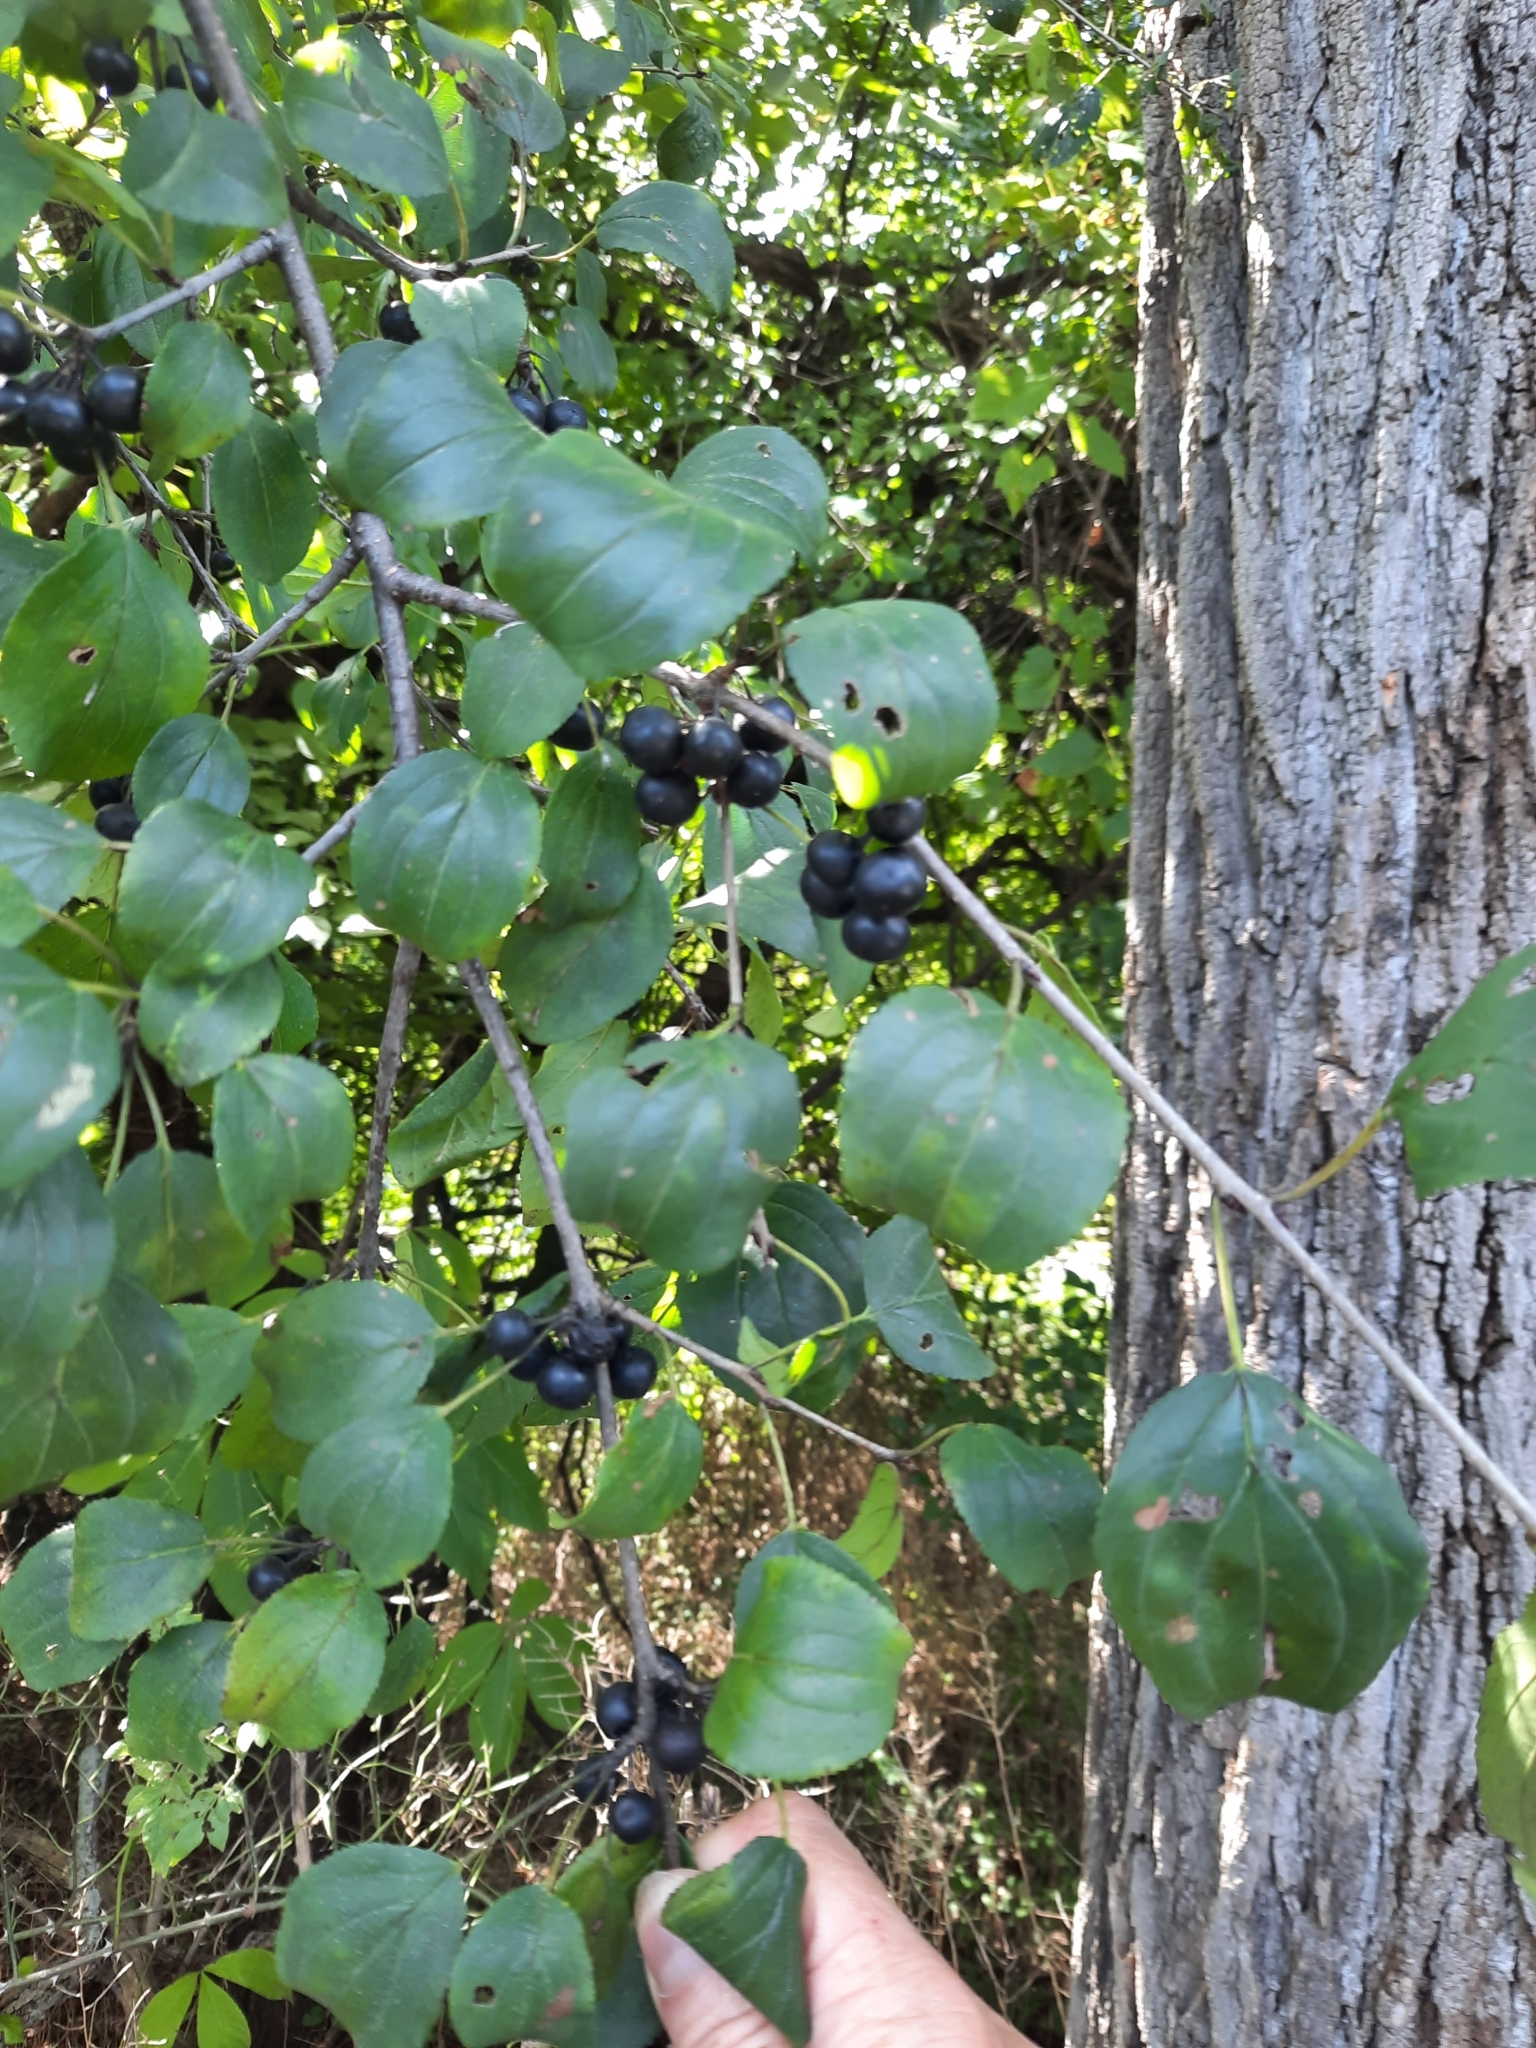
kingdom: Plantae
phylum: Tracheophyta
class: Magnoliopsida
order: Rosales
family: Rhamnaceae
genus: Rhamnus
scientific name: Rhamnus cathartica
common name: Common buckthorn
